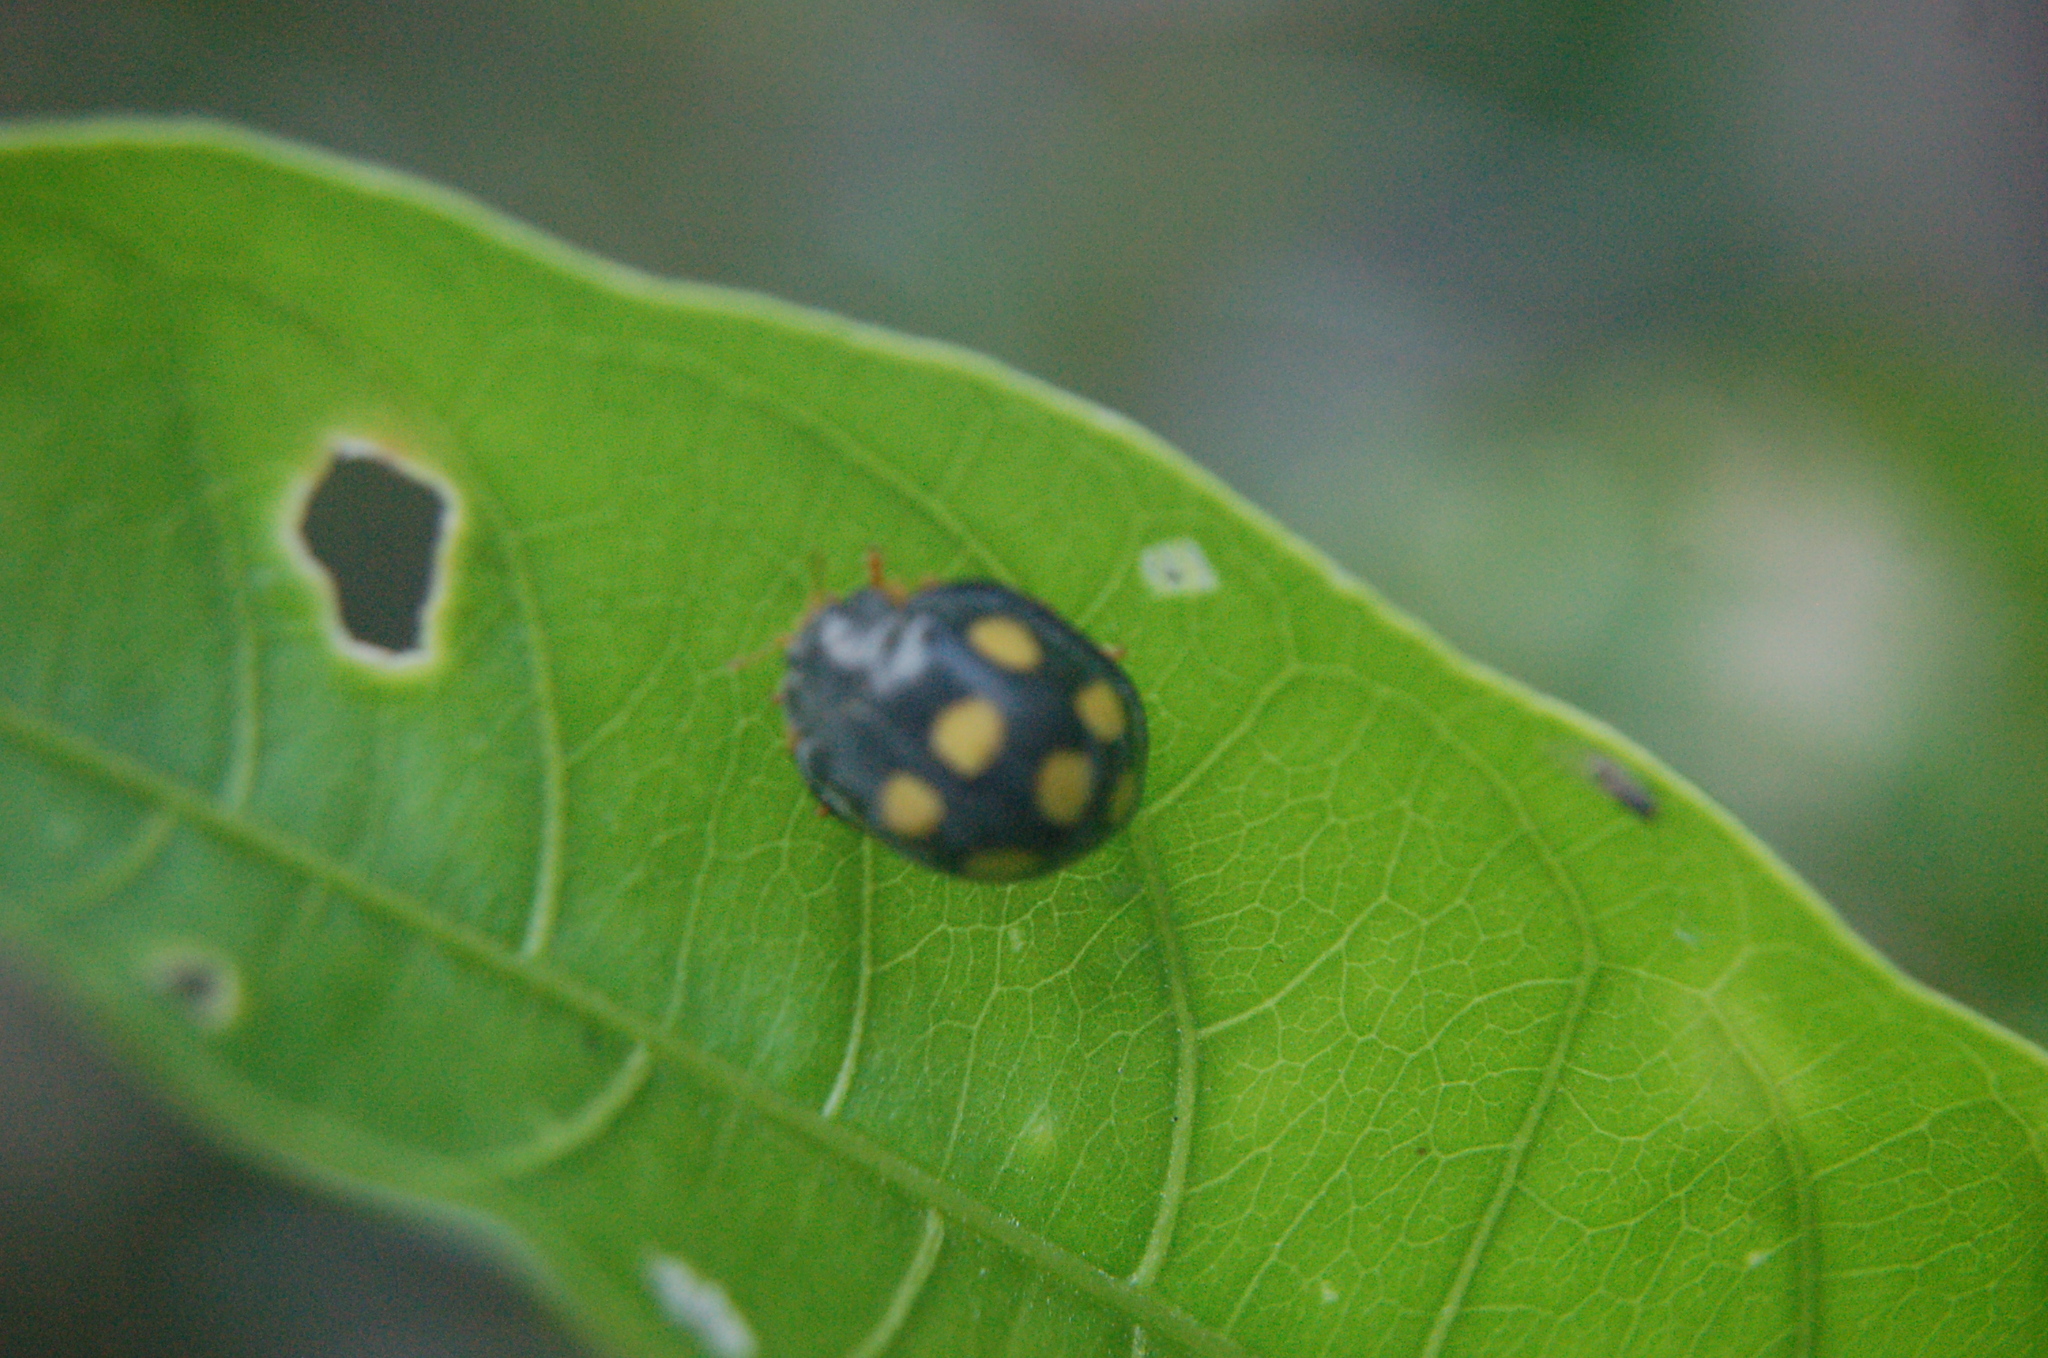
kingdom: Animalia
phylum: Arthropoda
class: Insecta
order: Coleoptera
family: Coccinellidae
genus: Epilachna
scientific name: Epilachna
